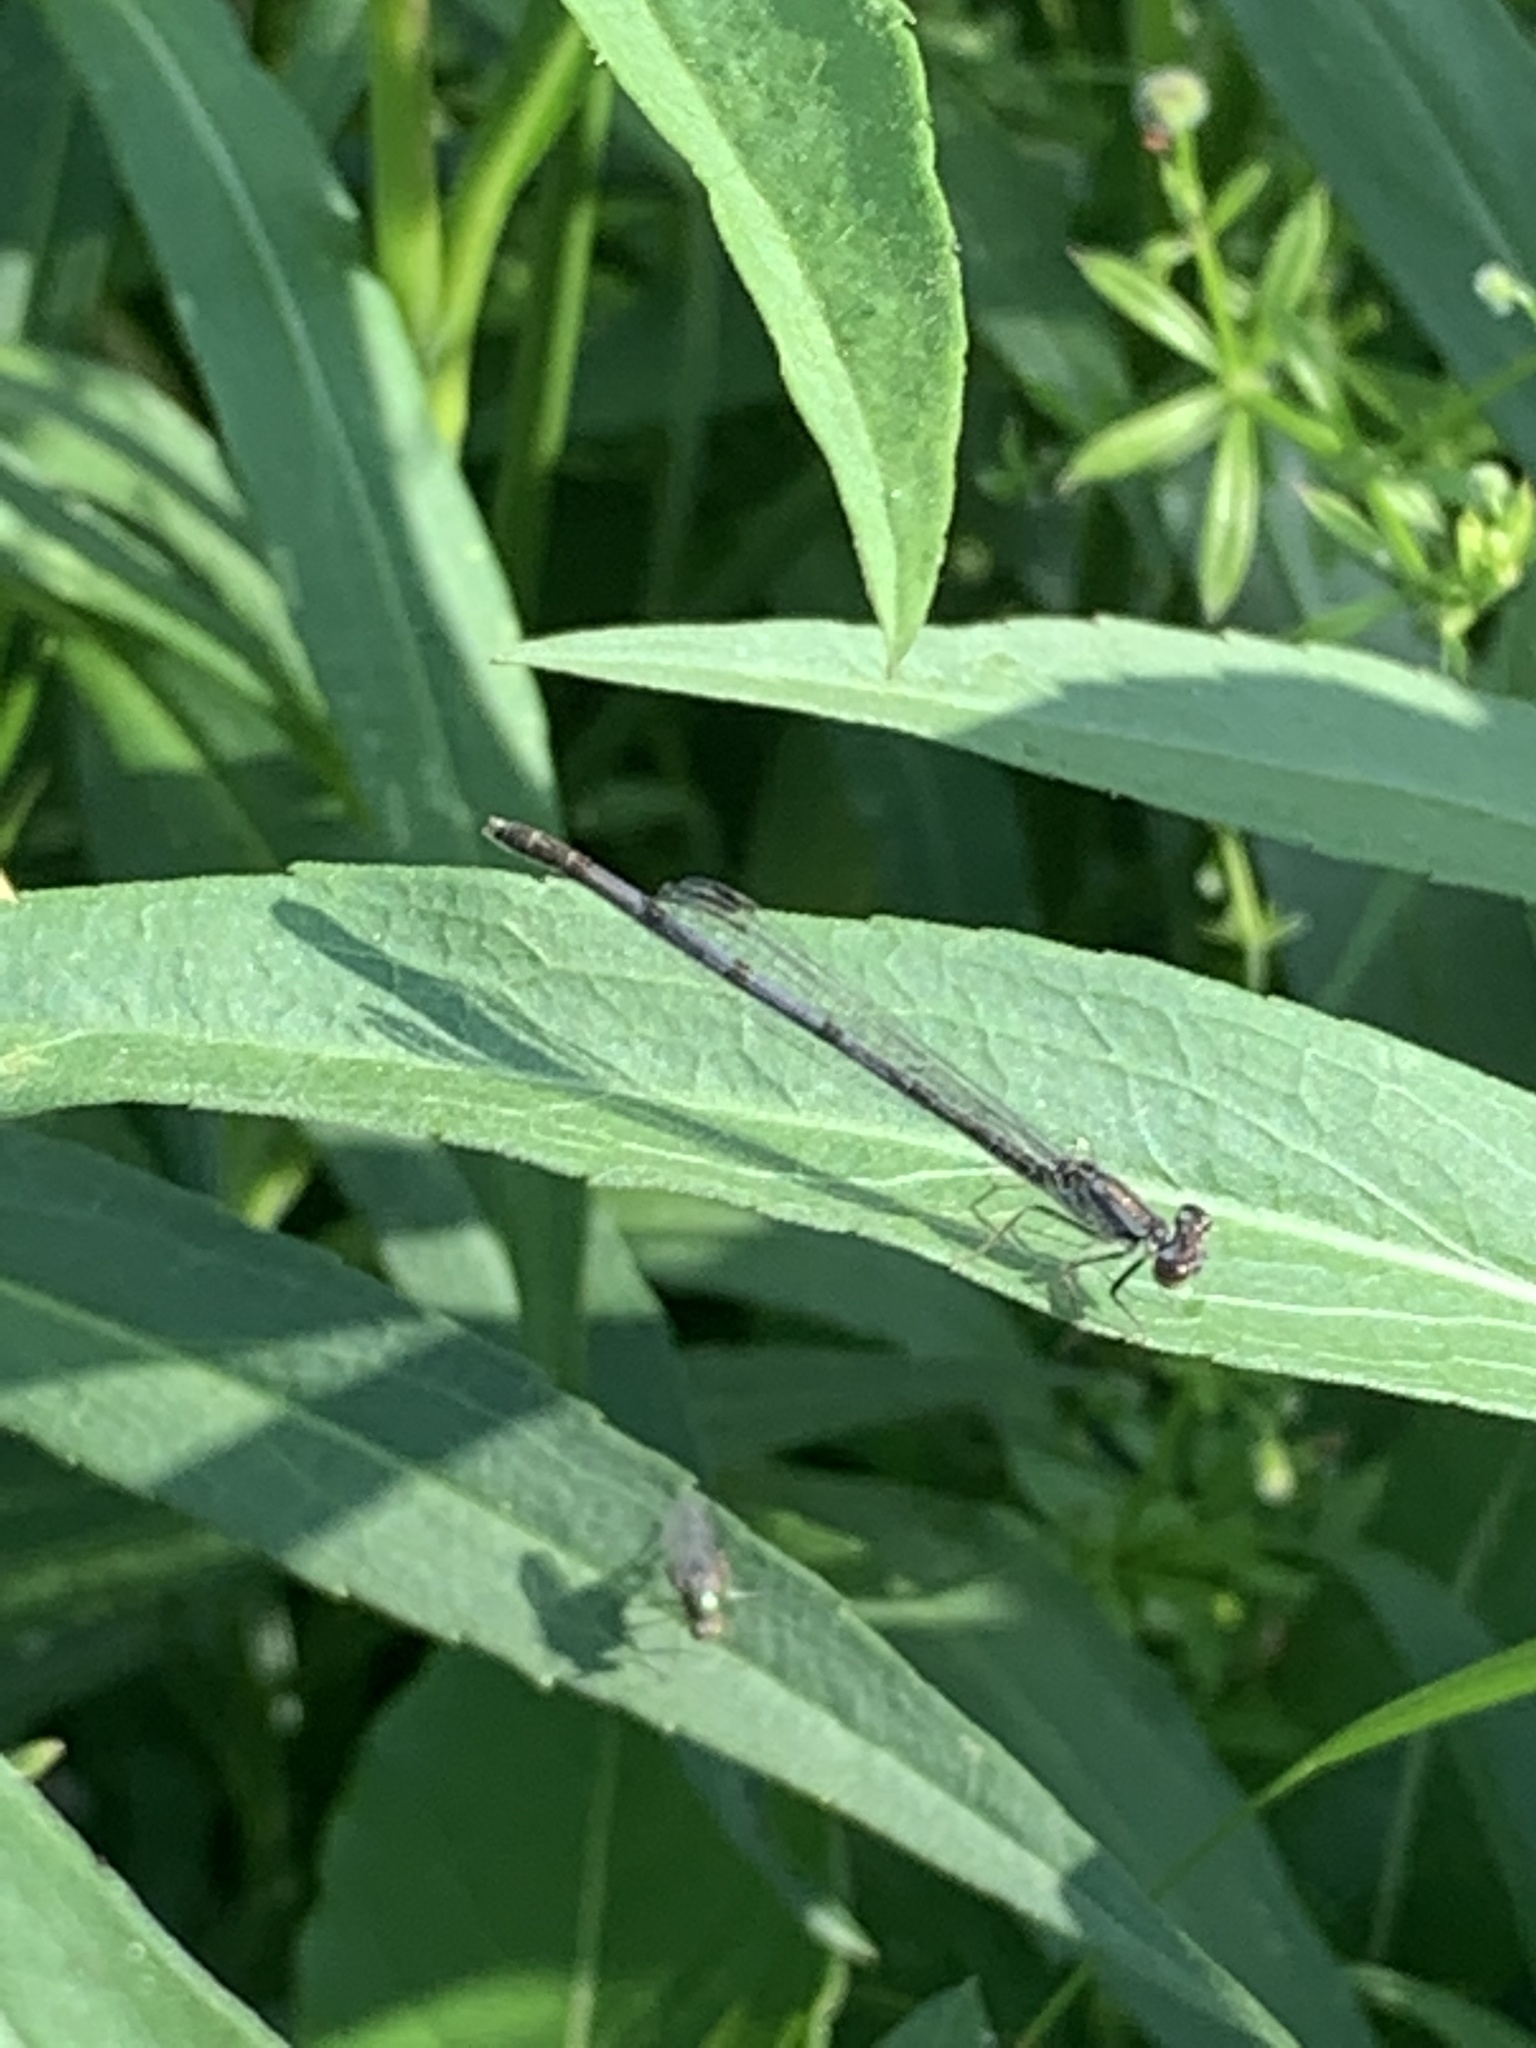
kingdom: Animalia
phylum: Arthropoda
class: Insecta
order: Odonata
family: Coenagrionidae
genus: Ischnura
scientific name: Ischnura posita
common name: Fragile forktail
